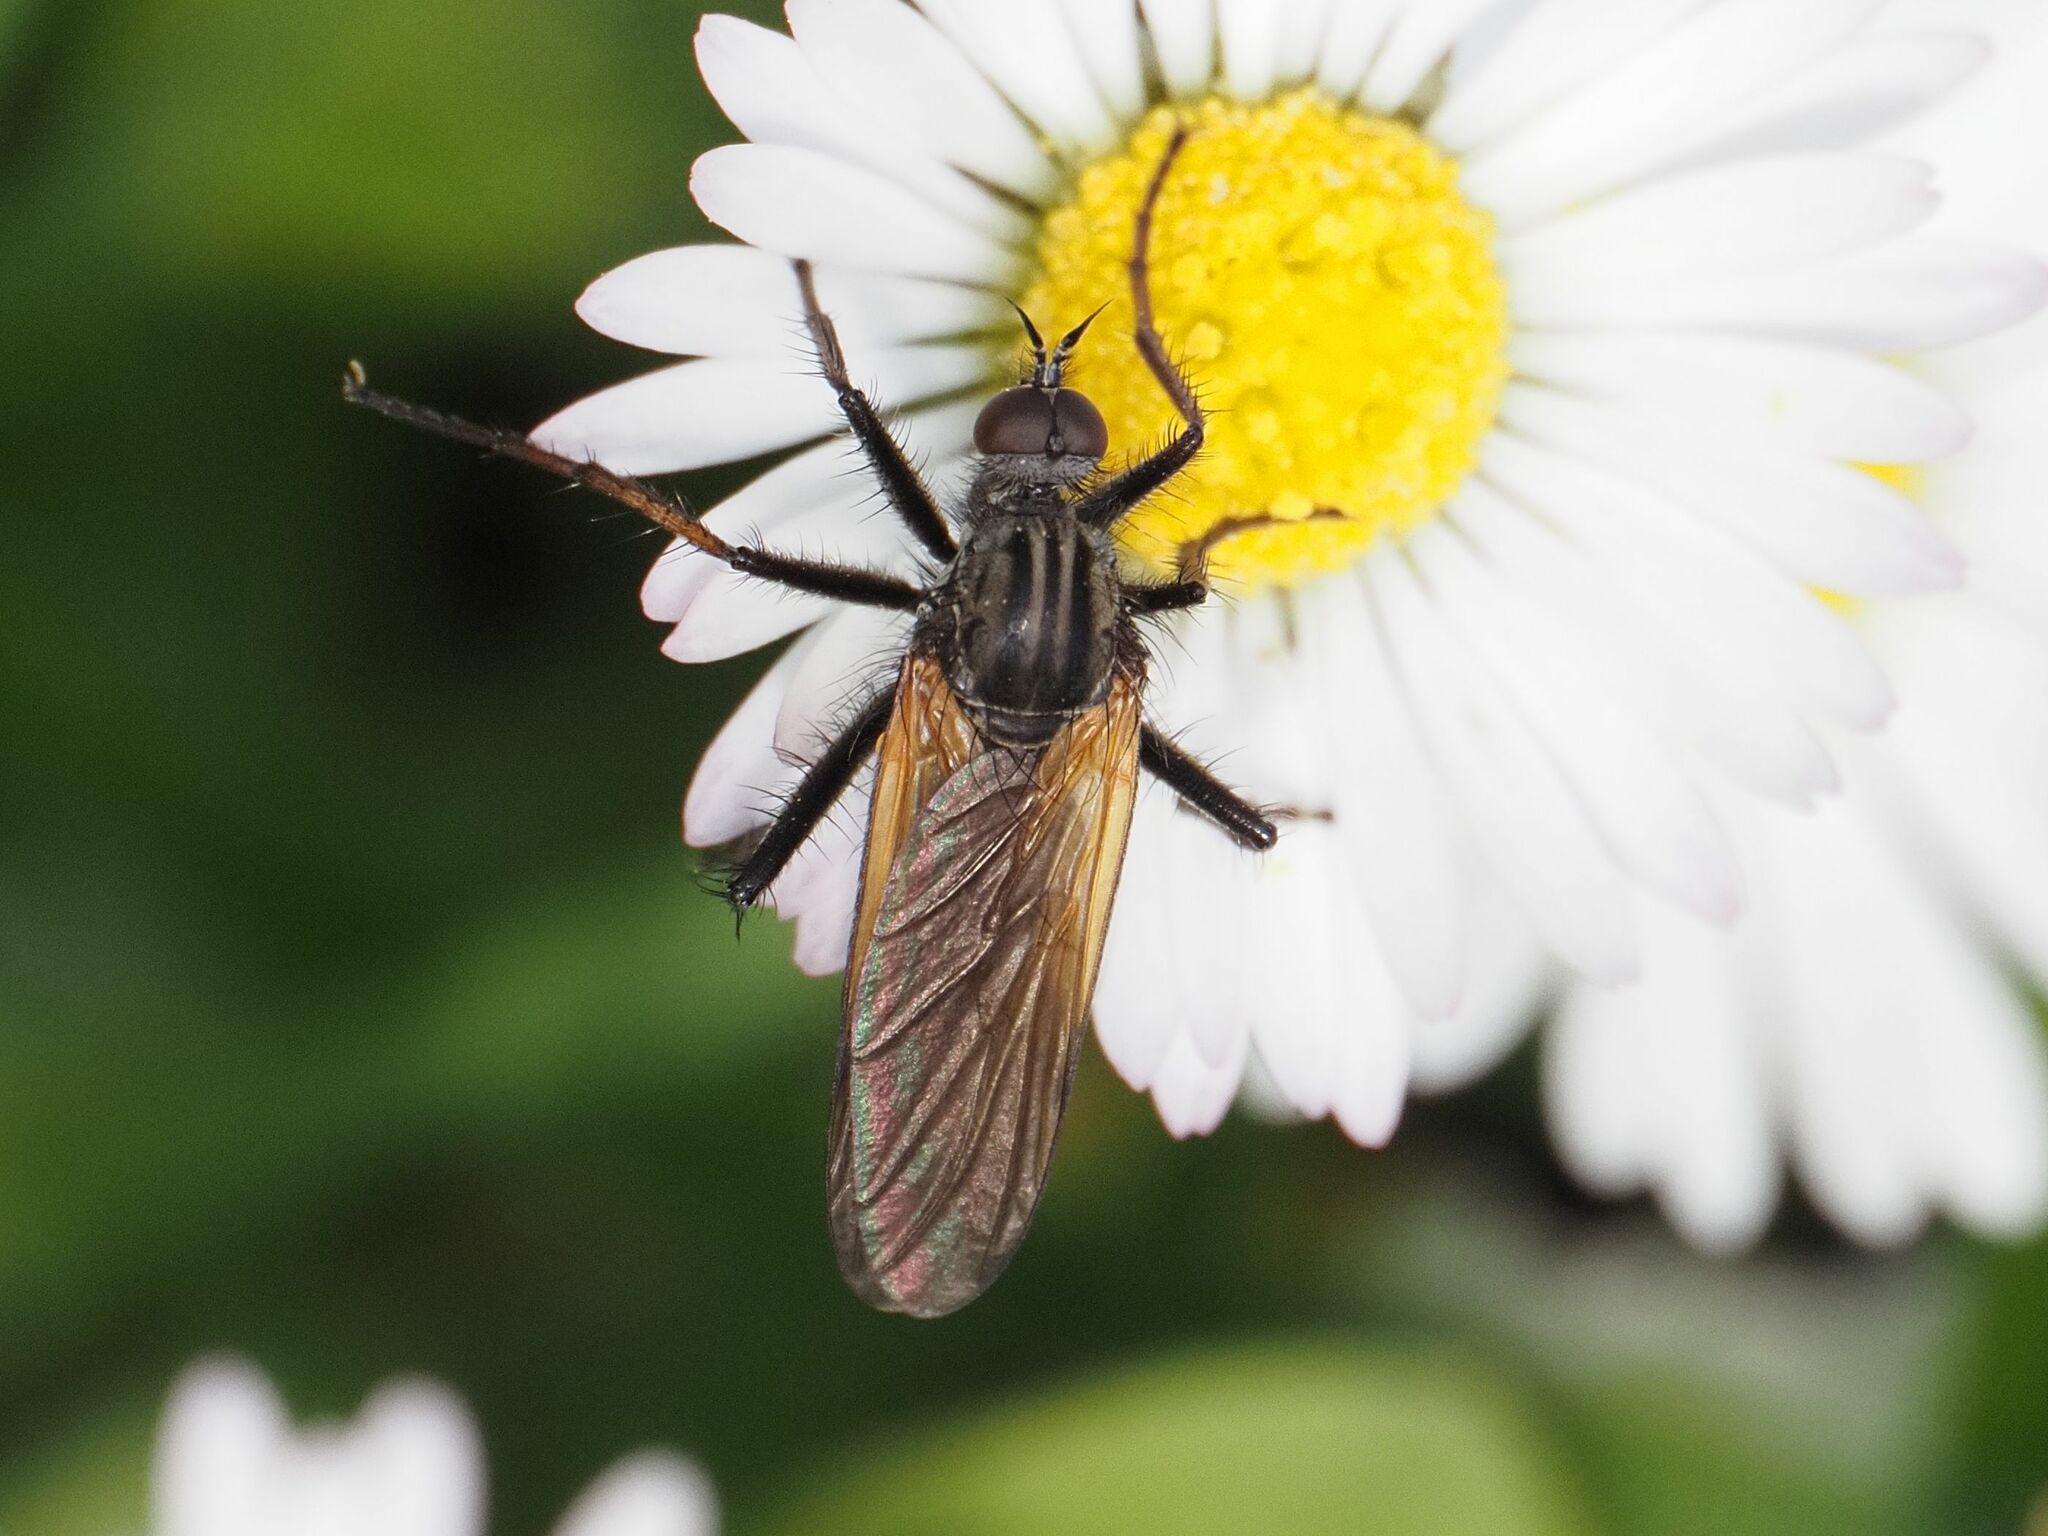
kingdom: Animalia
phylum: Arthropoda
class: Insecta
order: Diptera
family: Empididae
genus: Empis
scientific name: Empis tessellata
